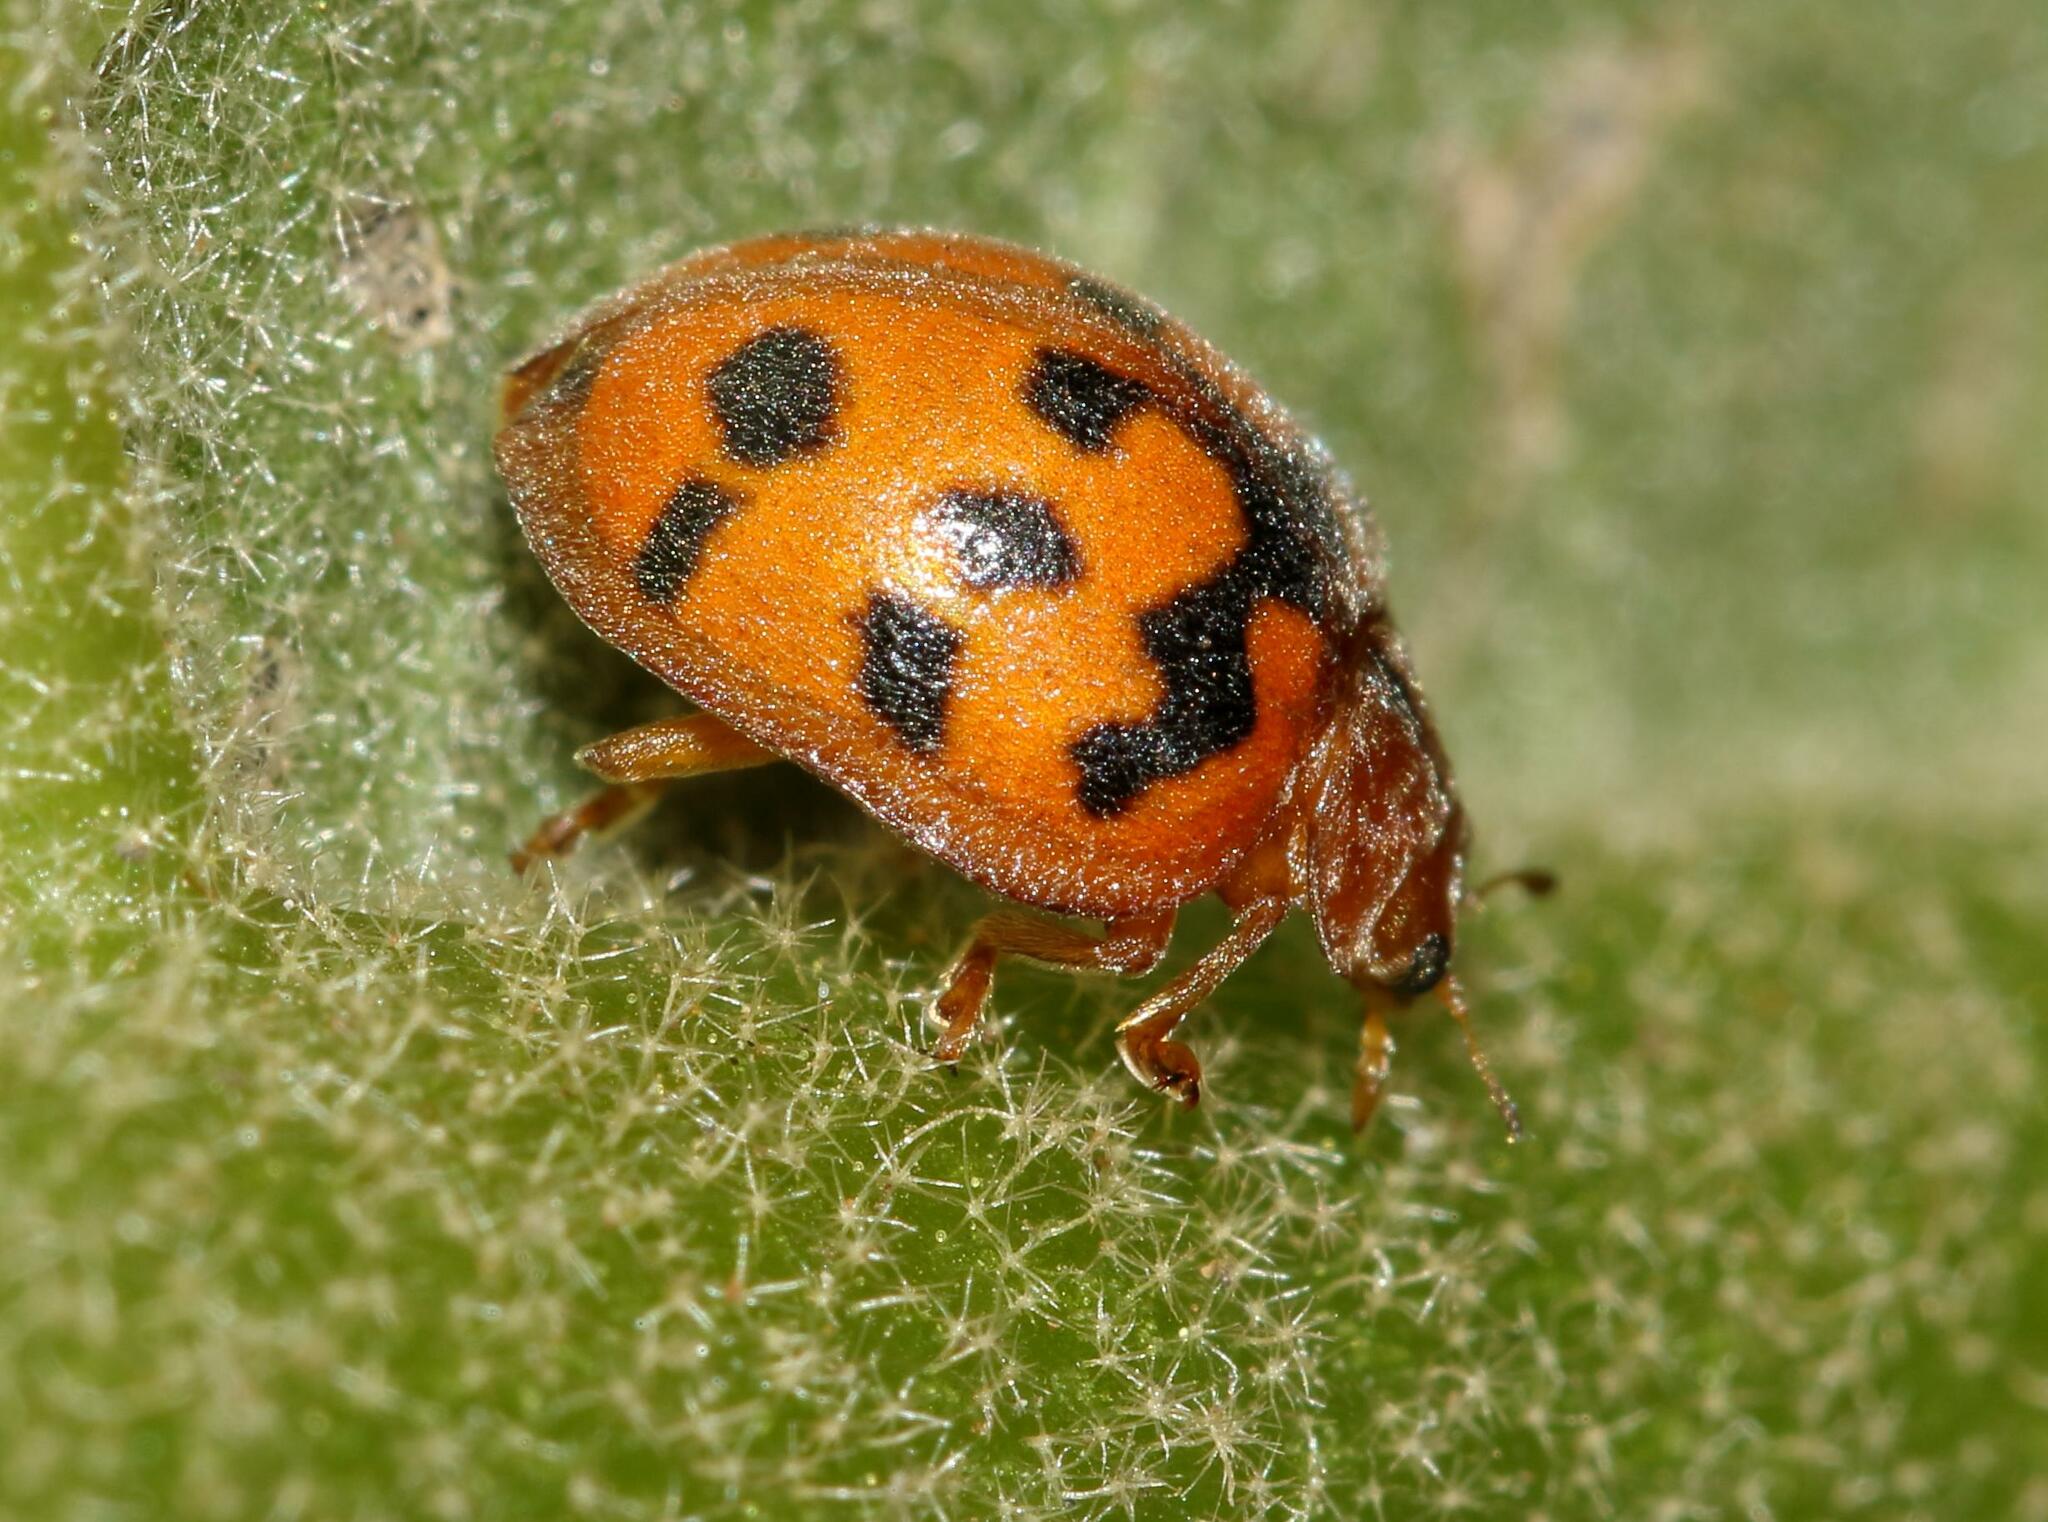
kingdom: Animalia
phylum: Arthropoda
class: Insecta
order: Coleoptera
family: Coccinellidae
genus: Chnootriba
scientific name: Chnootriba
